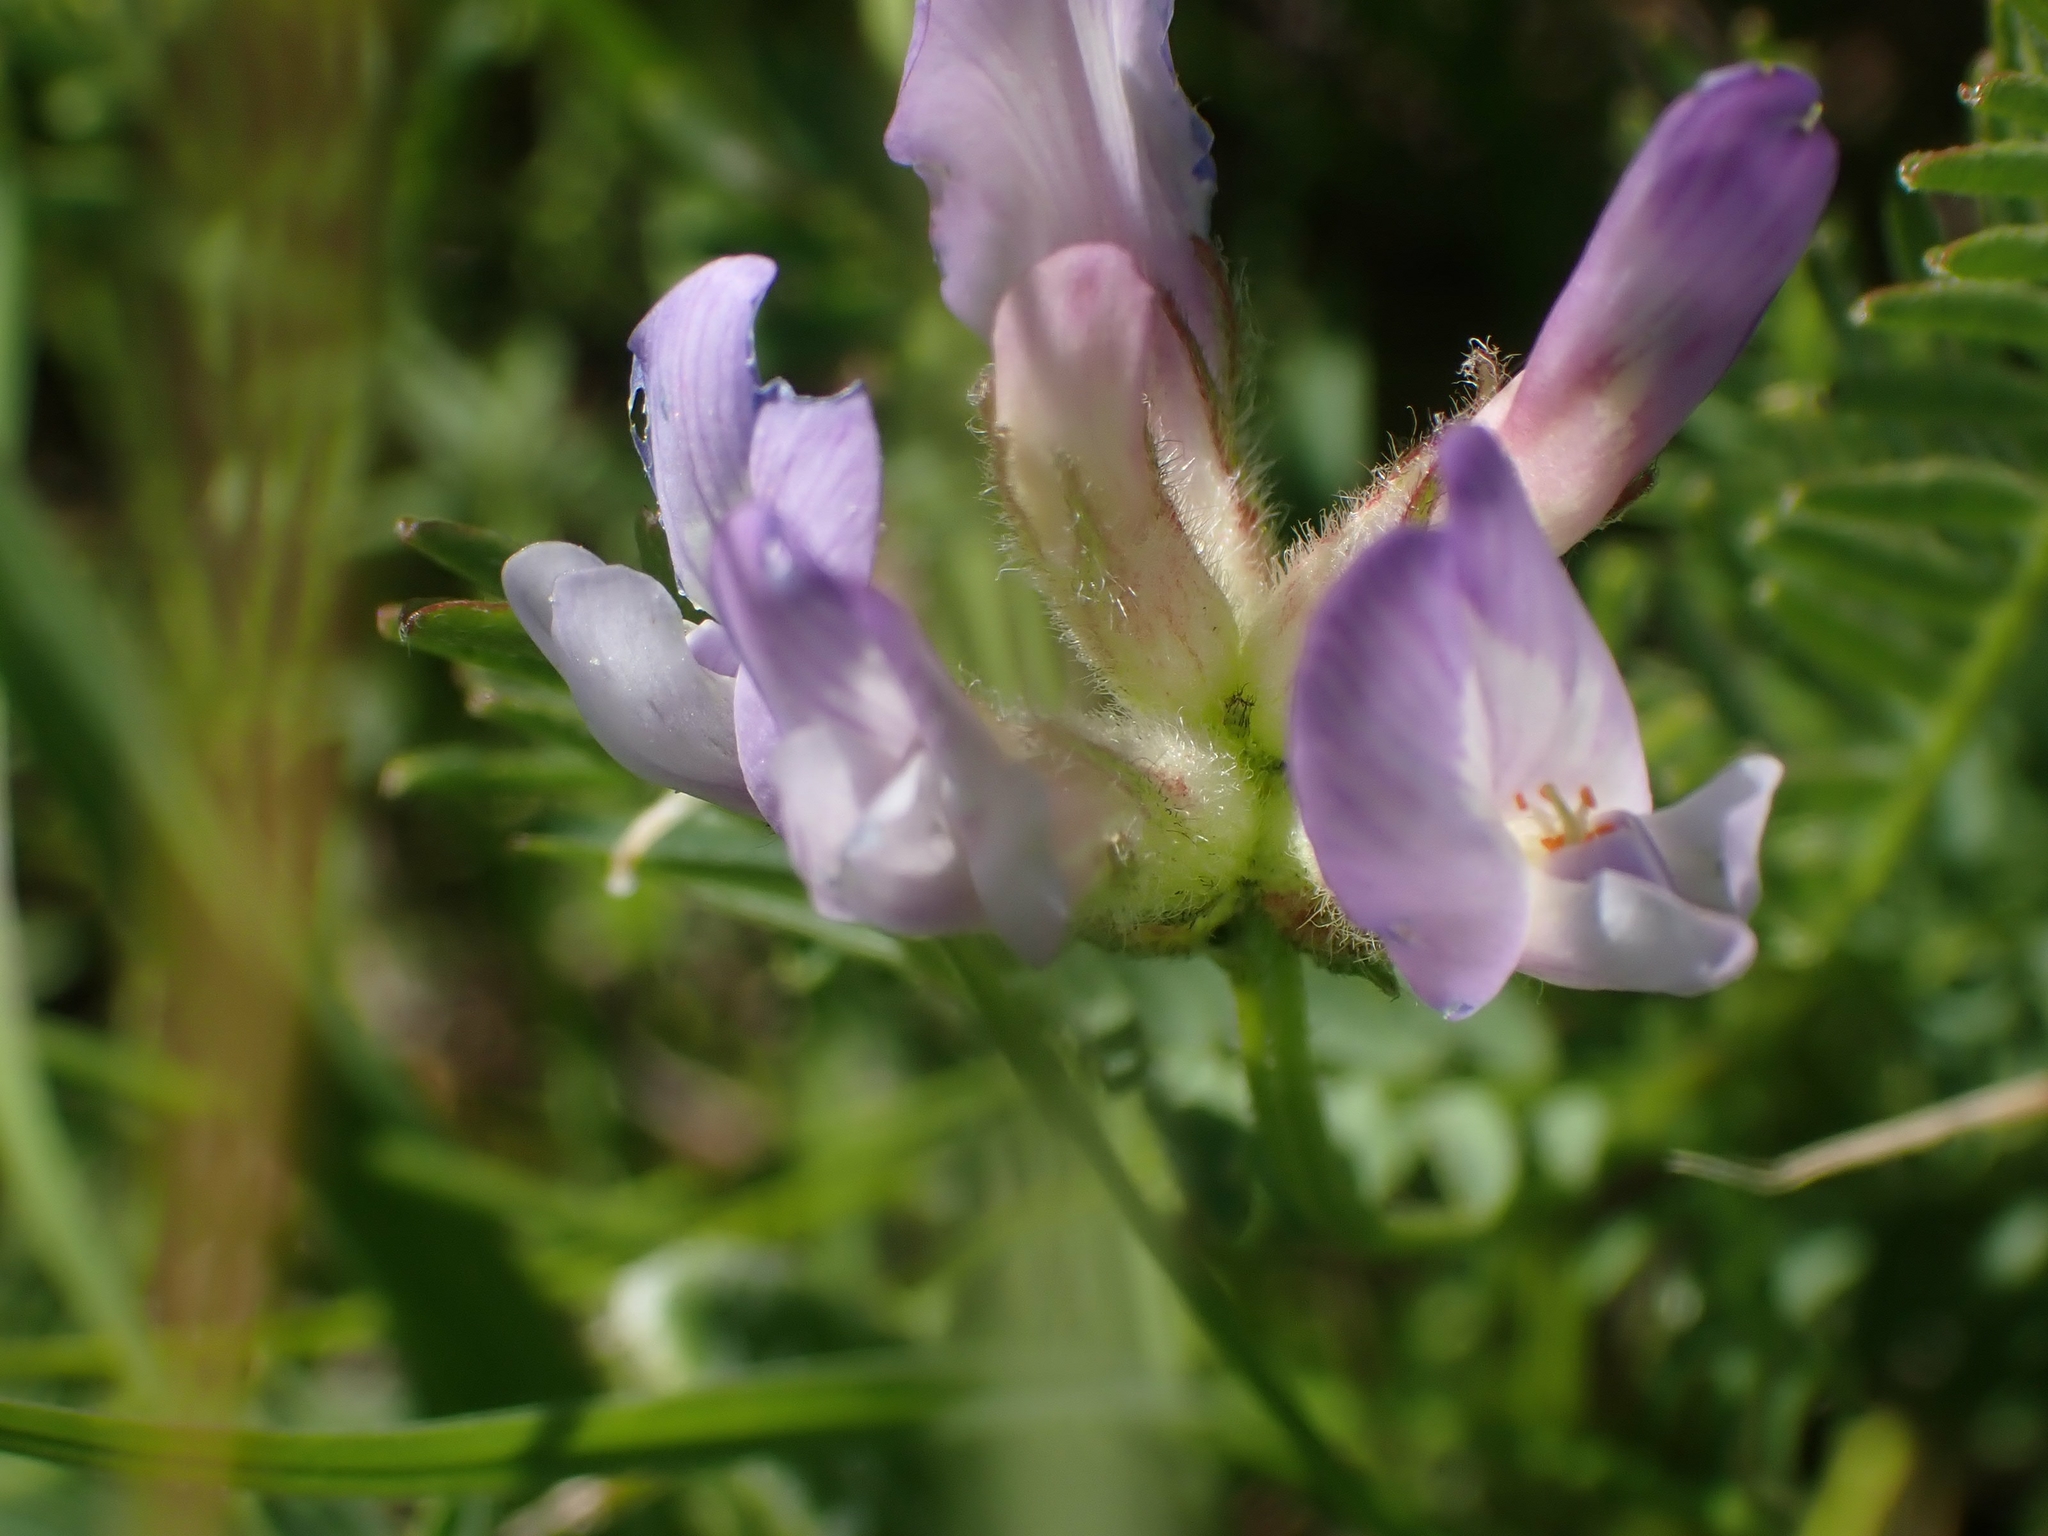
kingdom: Plantae
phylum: Tracheophyta
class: Magnoliopsida
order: Fabales
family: Fabaceae
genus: Astragalus
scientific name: Astragalus agrestis
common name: Field milk-vetch
